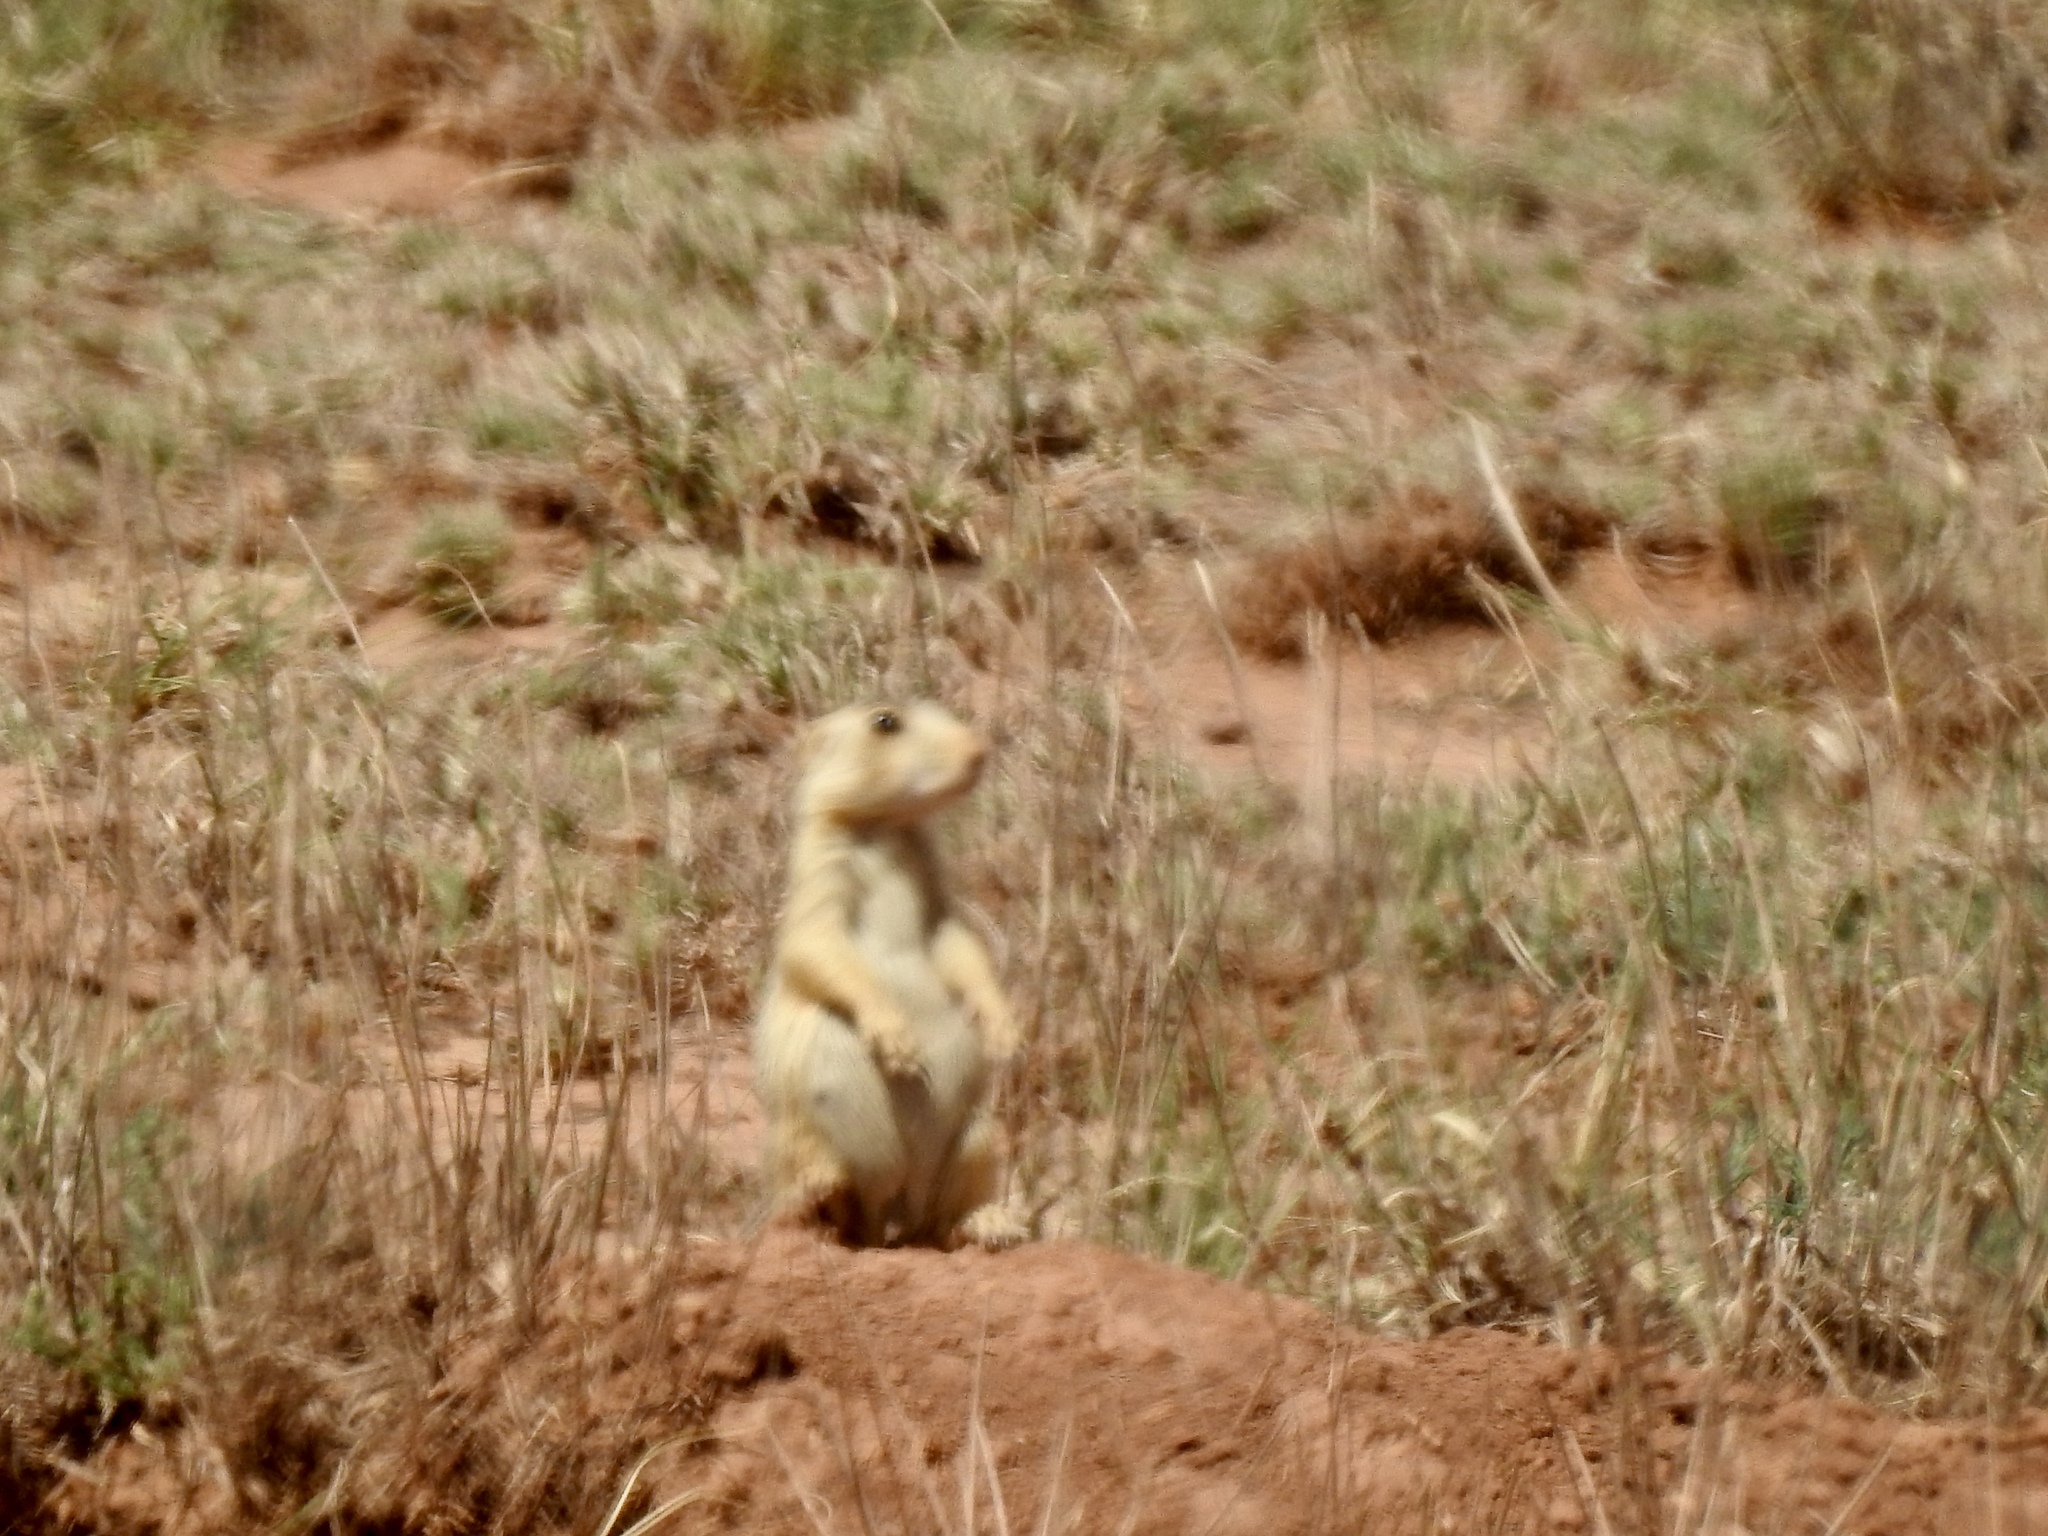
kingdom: Animalia
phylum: Chordata
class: Mammalia
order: Rodentia
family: Sciuridae
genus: Cynomys
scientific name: Cynomys gunnisoni
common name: Gunnison's prairie dog
